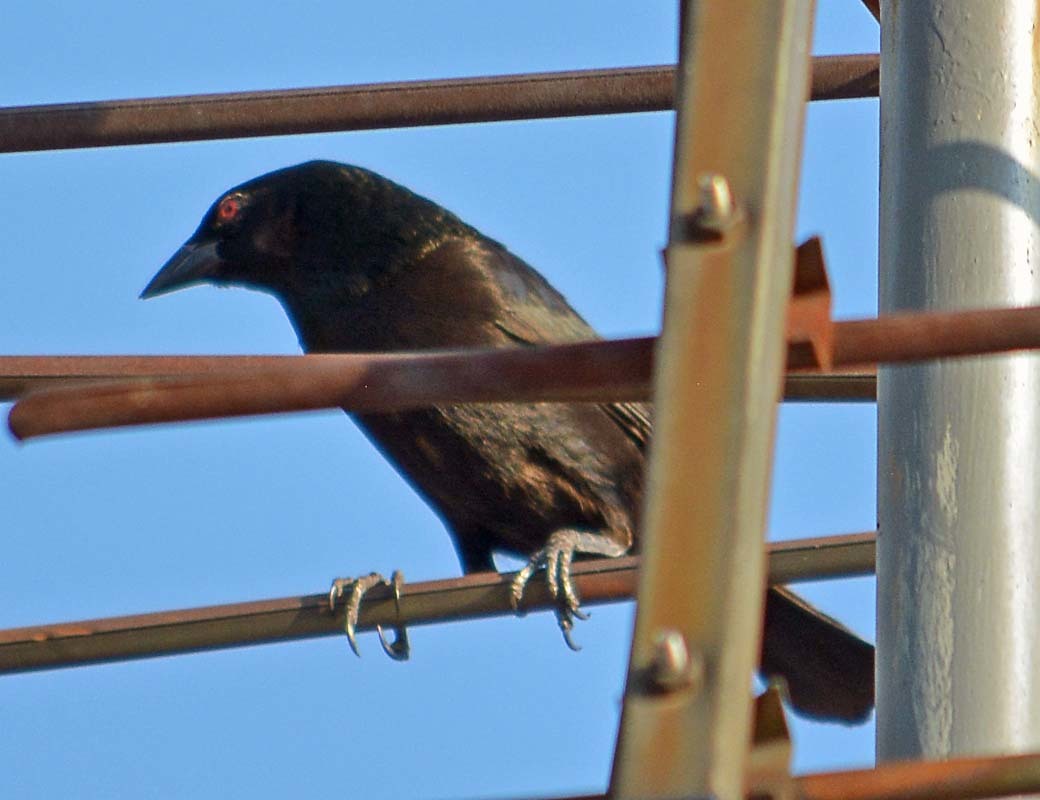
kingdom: Animalia
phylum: Chordata
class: Aves
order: Passeriformes
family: Icteridae
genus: Molothrus
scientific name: Molothrus aeneus
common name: Bronzed cowbird
